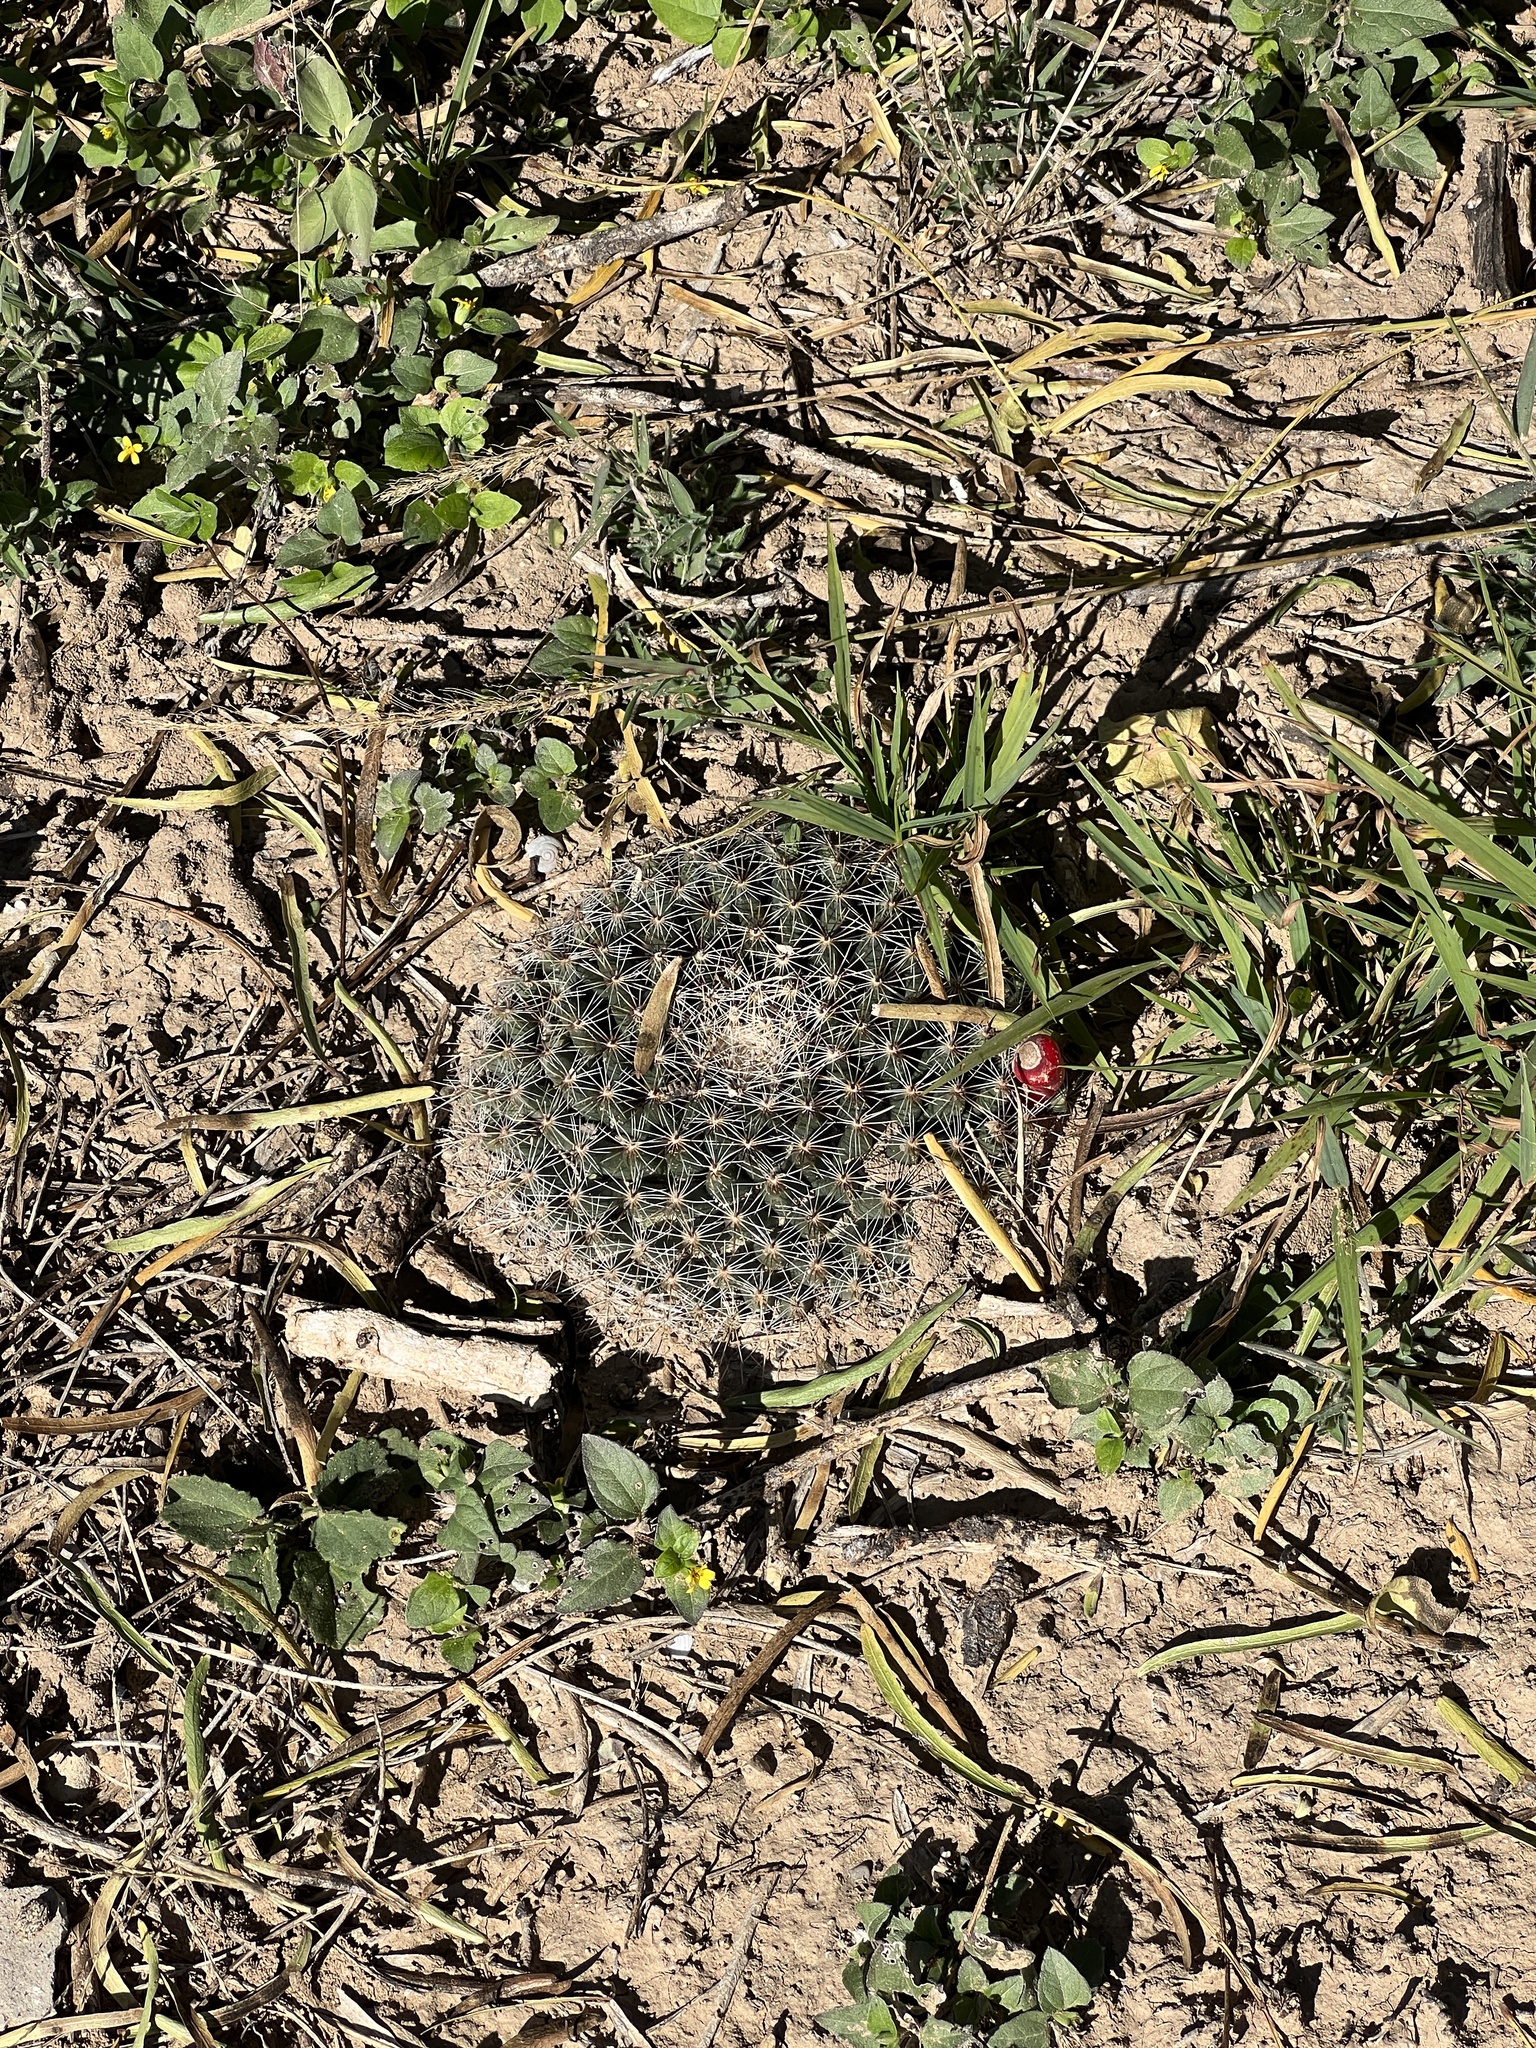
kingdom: Plantae
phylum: Tracheophyta
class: Magnoliopsida
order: Caryophyllales
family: Cactaceae
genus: Mammillaria
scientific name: Mammillaria heyderi
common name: Little nipple cactus
